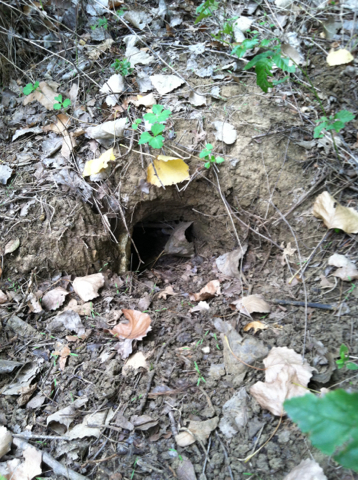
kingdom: Animalia
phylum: Chordata
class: Mammalia
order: Cingulata
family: Dasypodidae
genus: Dasypus
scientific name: Dasypus novemcinctus
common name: Nine-banded armadillo
